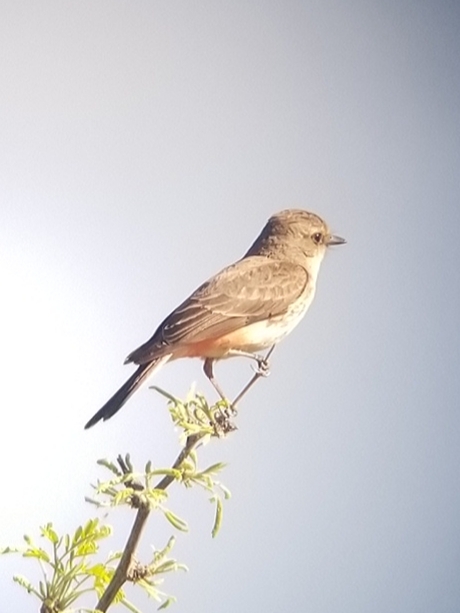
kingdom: Animalia
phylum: Chordata
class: Aves
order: Passeriformes
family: Tyrannidae
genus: Pyrocephalus
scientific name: Pyrocephalus rubinus
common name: Vermilion flycatcher
